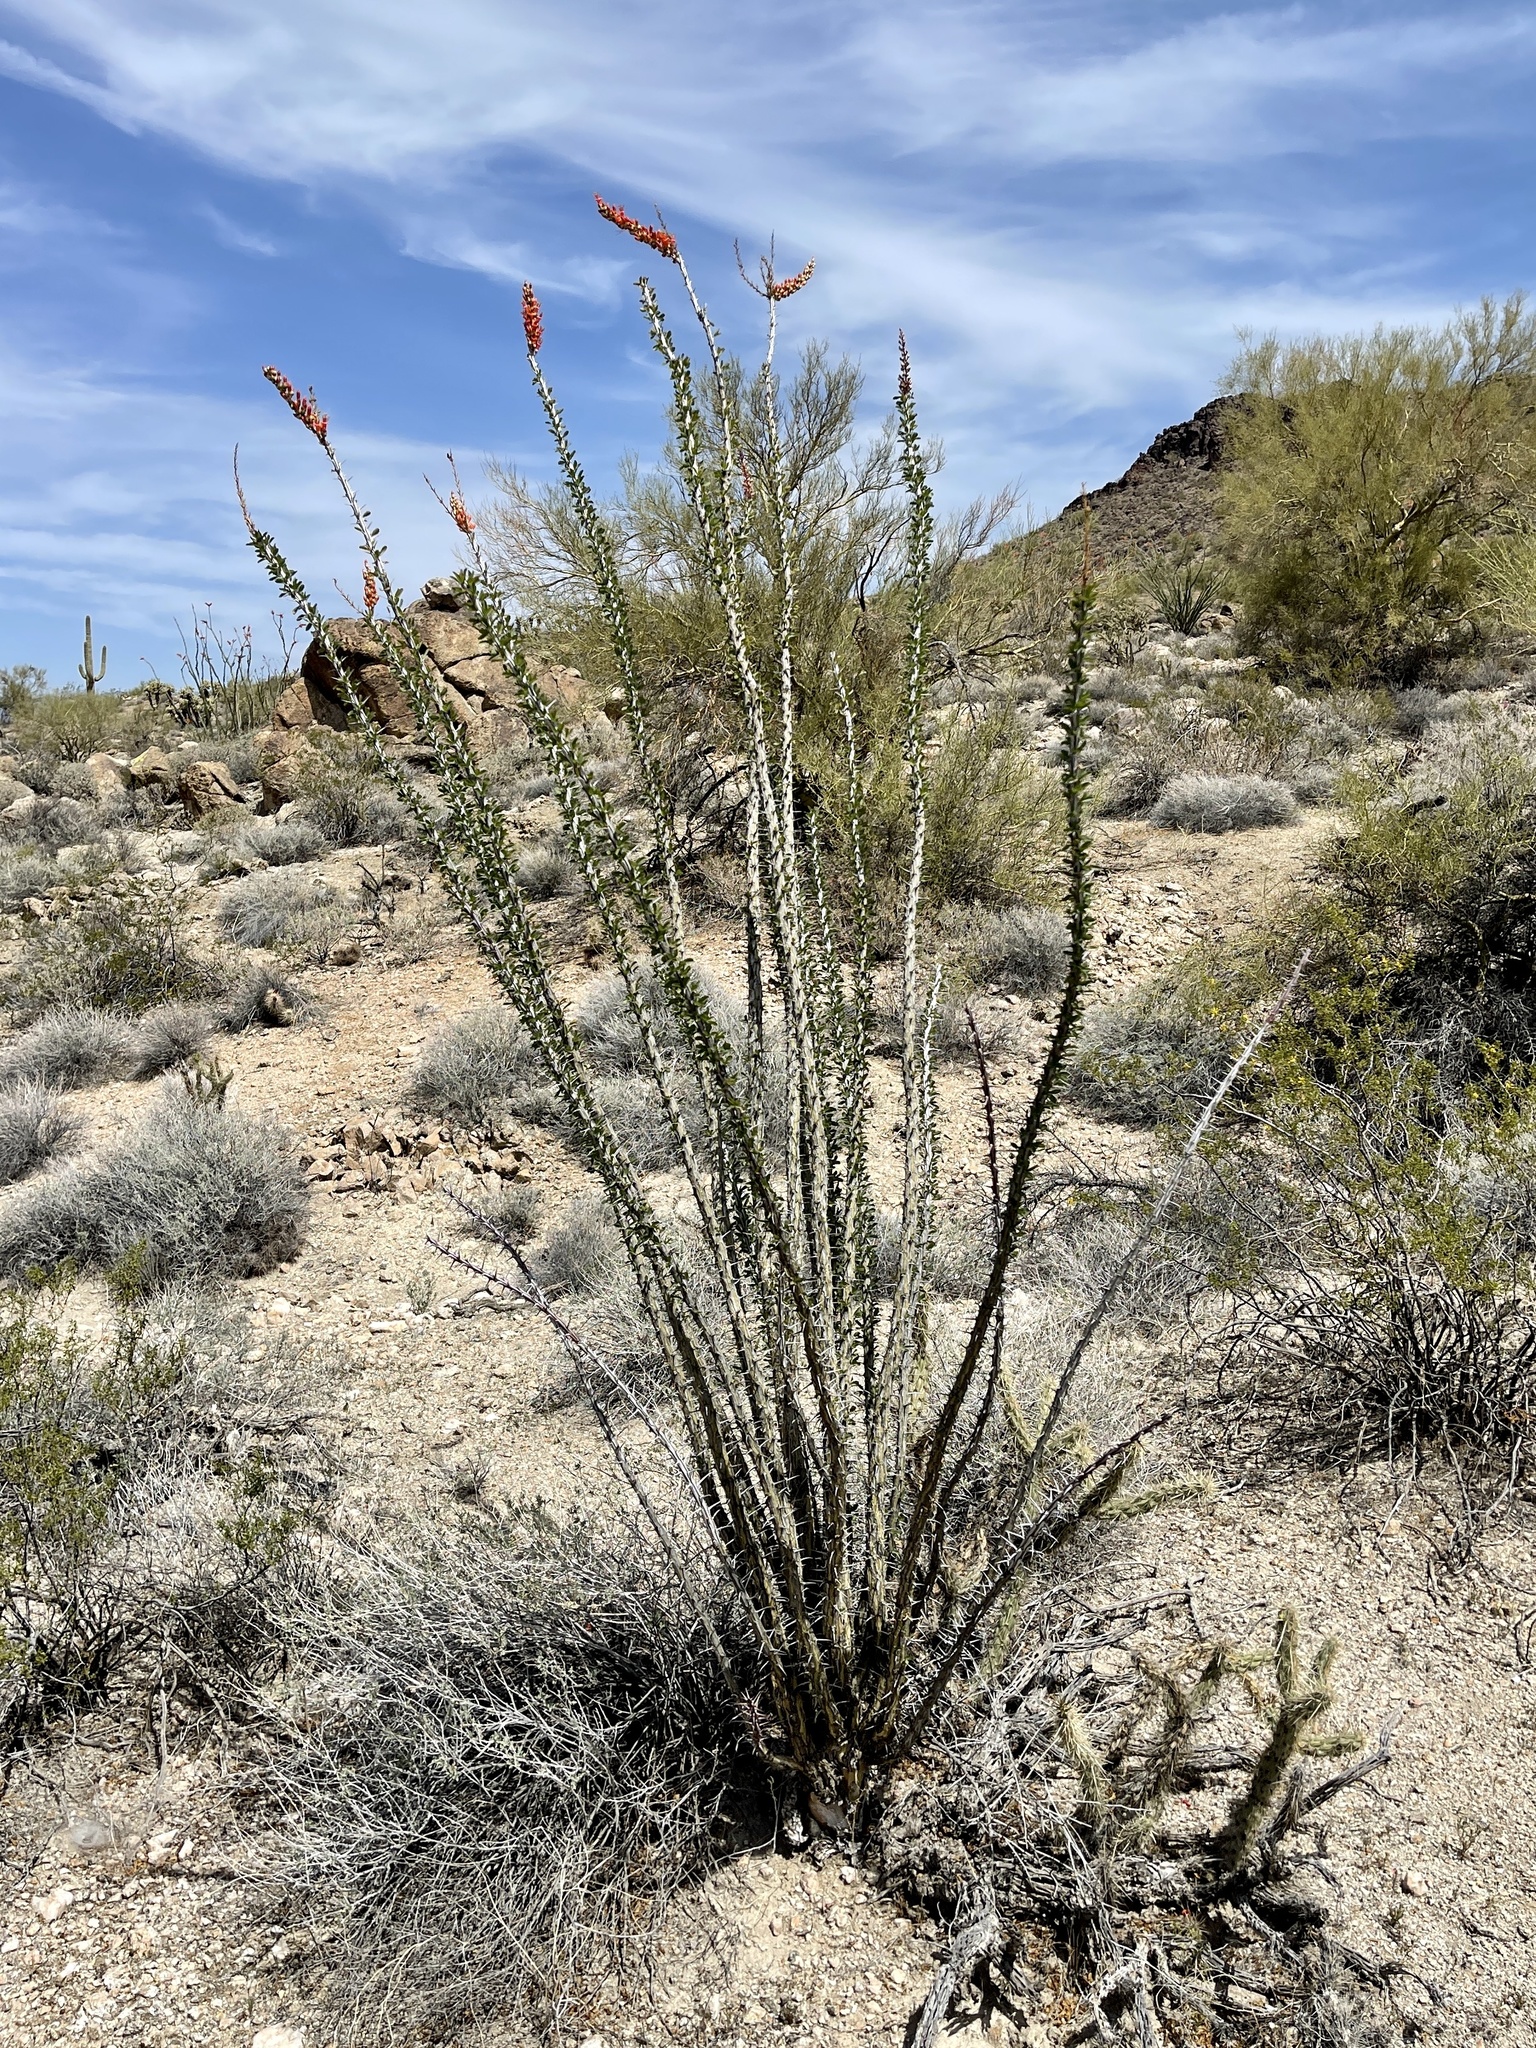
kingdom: Plantae
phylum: Tracheophyta
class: Magnoliopsida
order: Ericales
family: Fouquieriaceae
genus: Fouquieria
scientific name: Fouquieria splendens
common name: Vine-cactus
